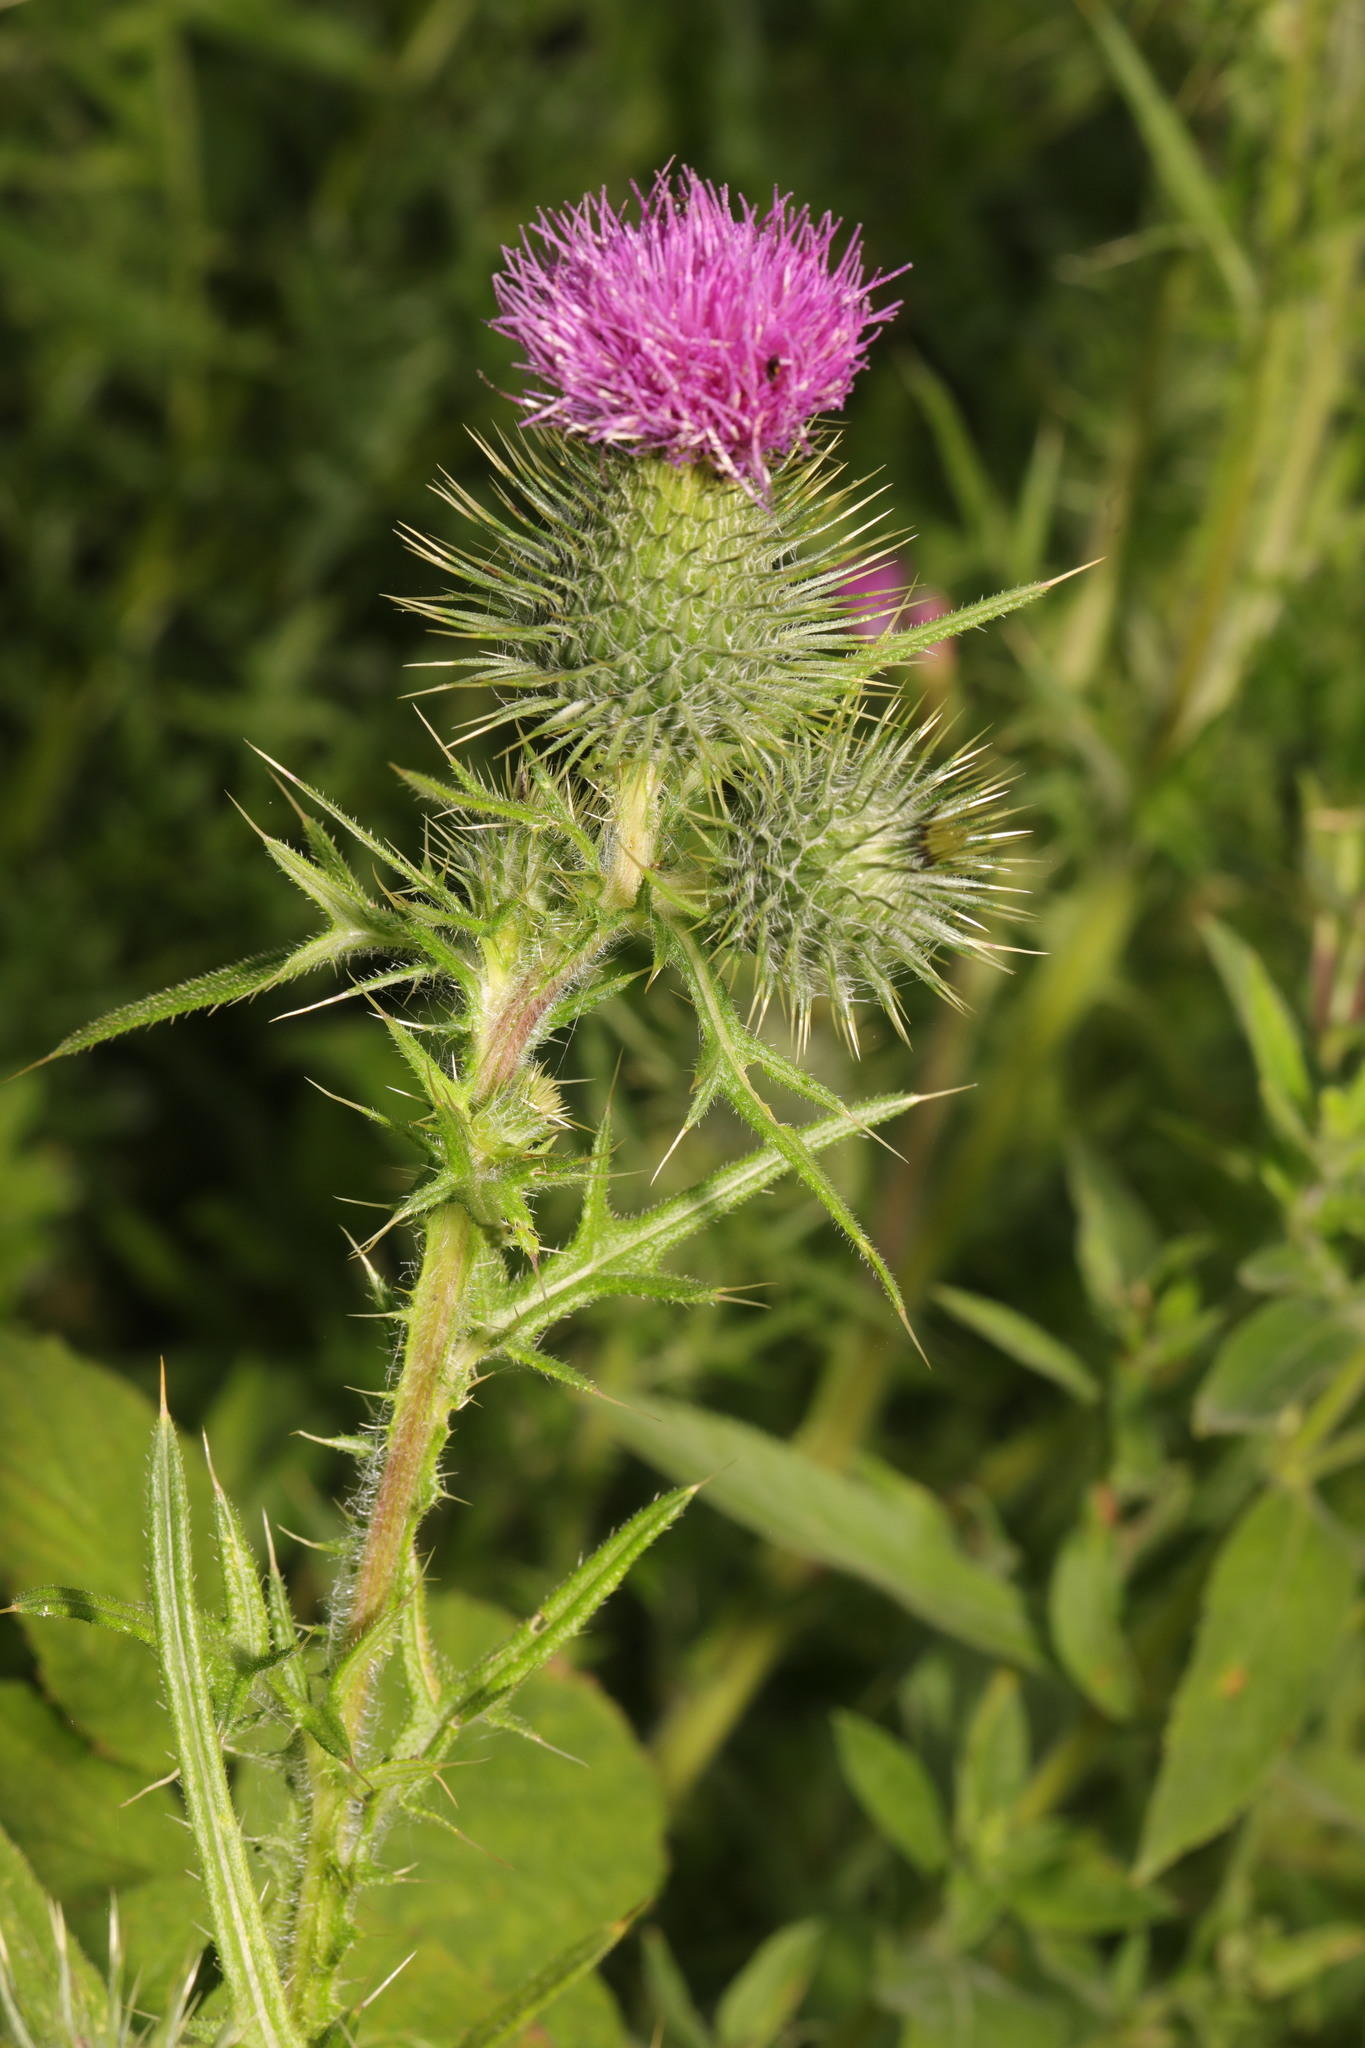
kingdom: Plantae
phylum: Tracheophyta
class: Magnoliopsida
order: Asterales
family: Asteraceae
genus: Cirsium
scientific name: Cirsium vulgare
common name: Bull thistle
